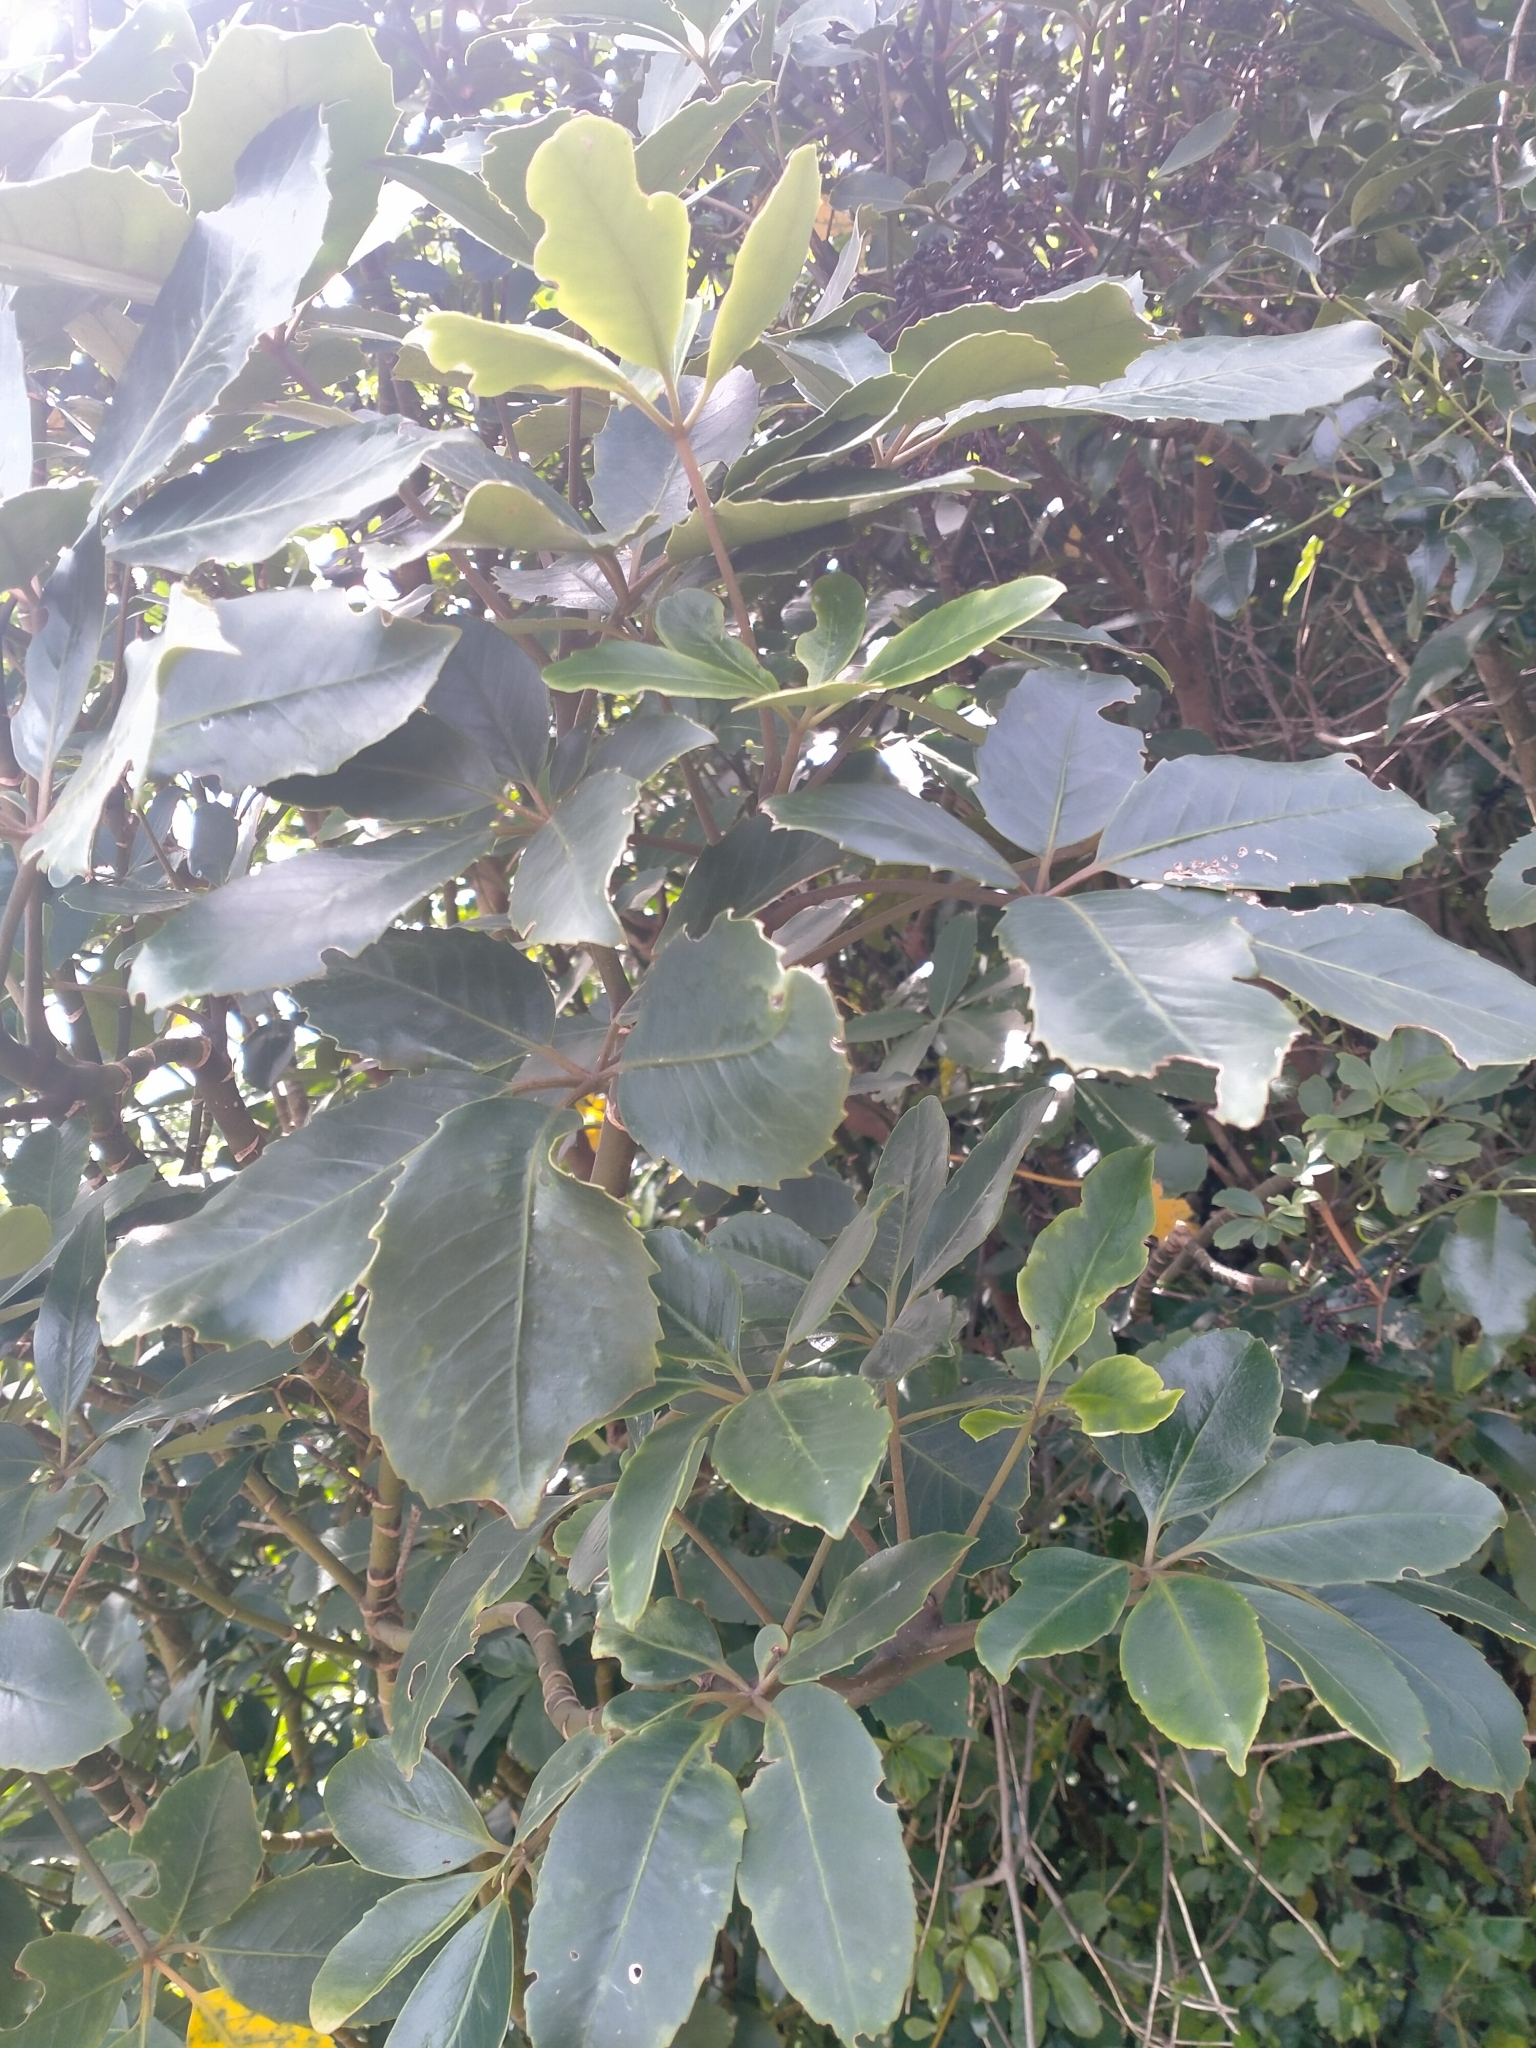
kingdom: Plantae
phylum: Tracheophyta
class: Magnoliopsida
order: Apiales
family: Araliaceae
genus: Neopanax
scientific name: Neopanax arboreus
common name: Five-fingers
